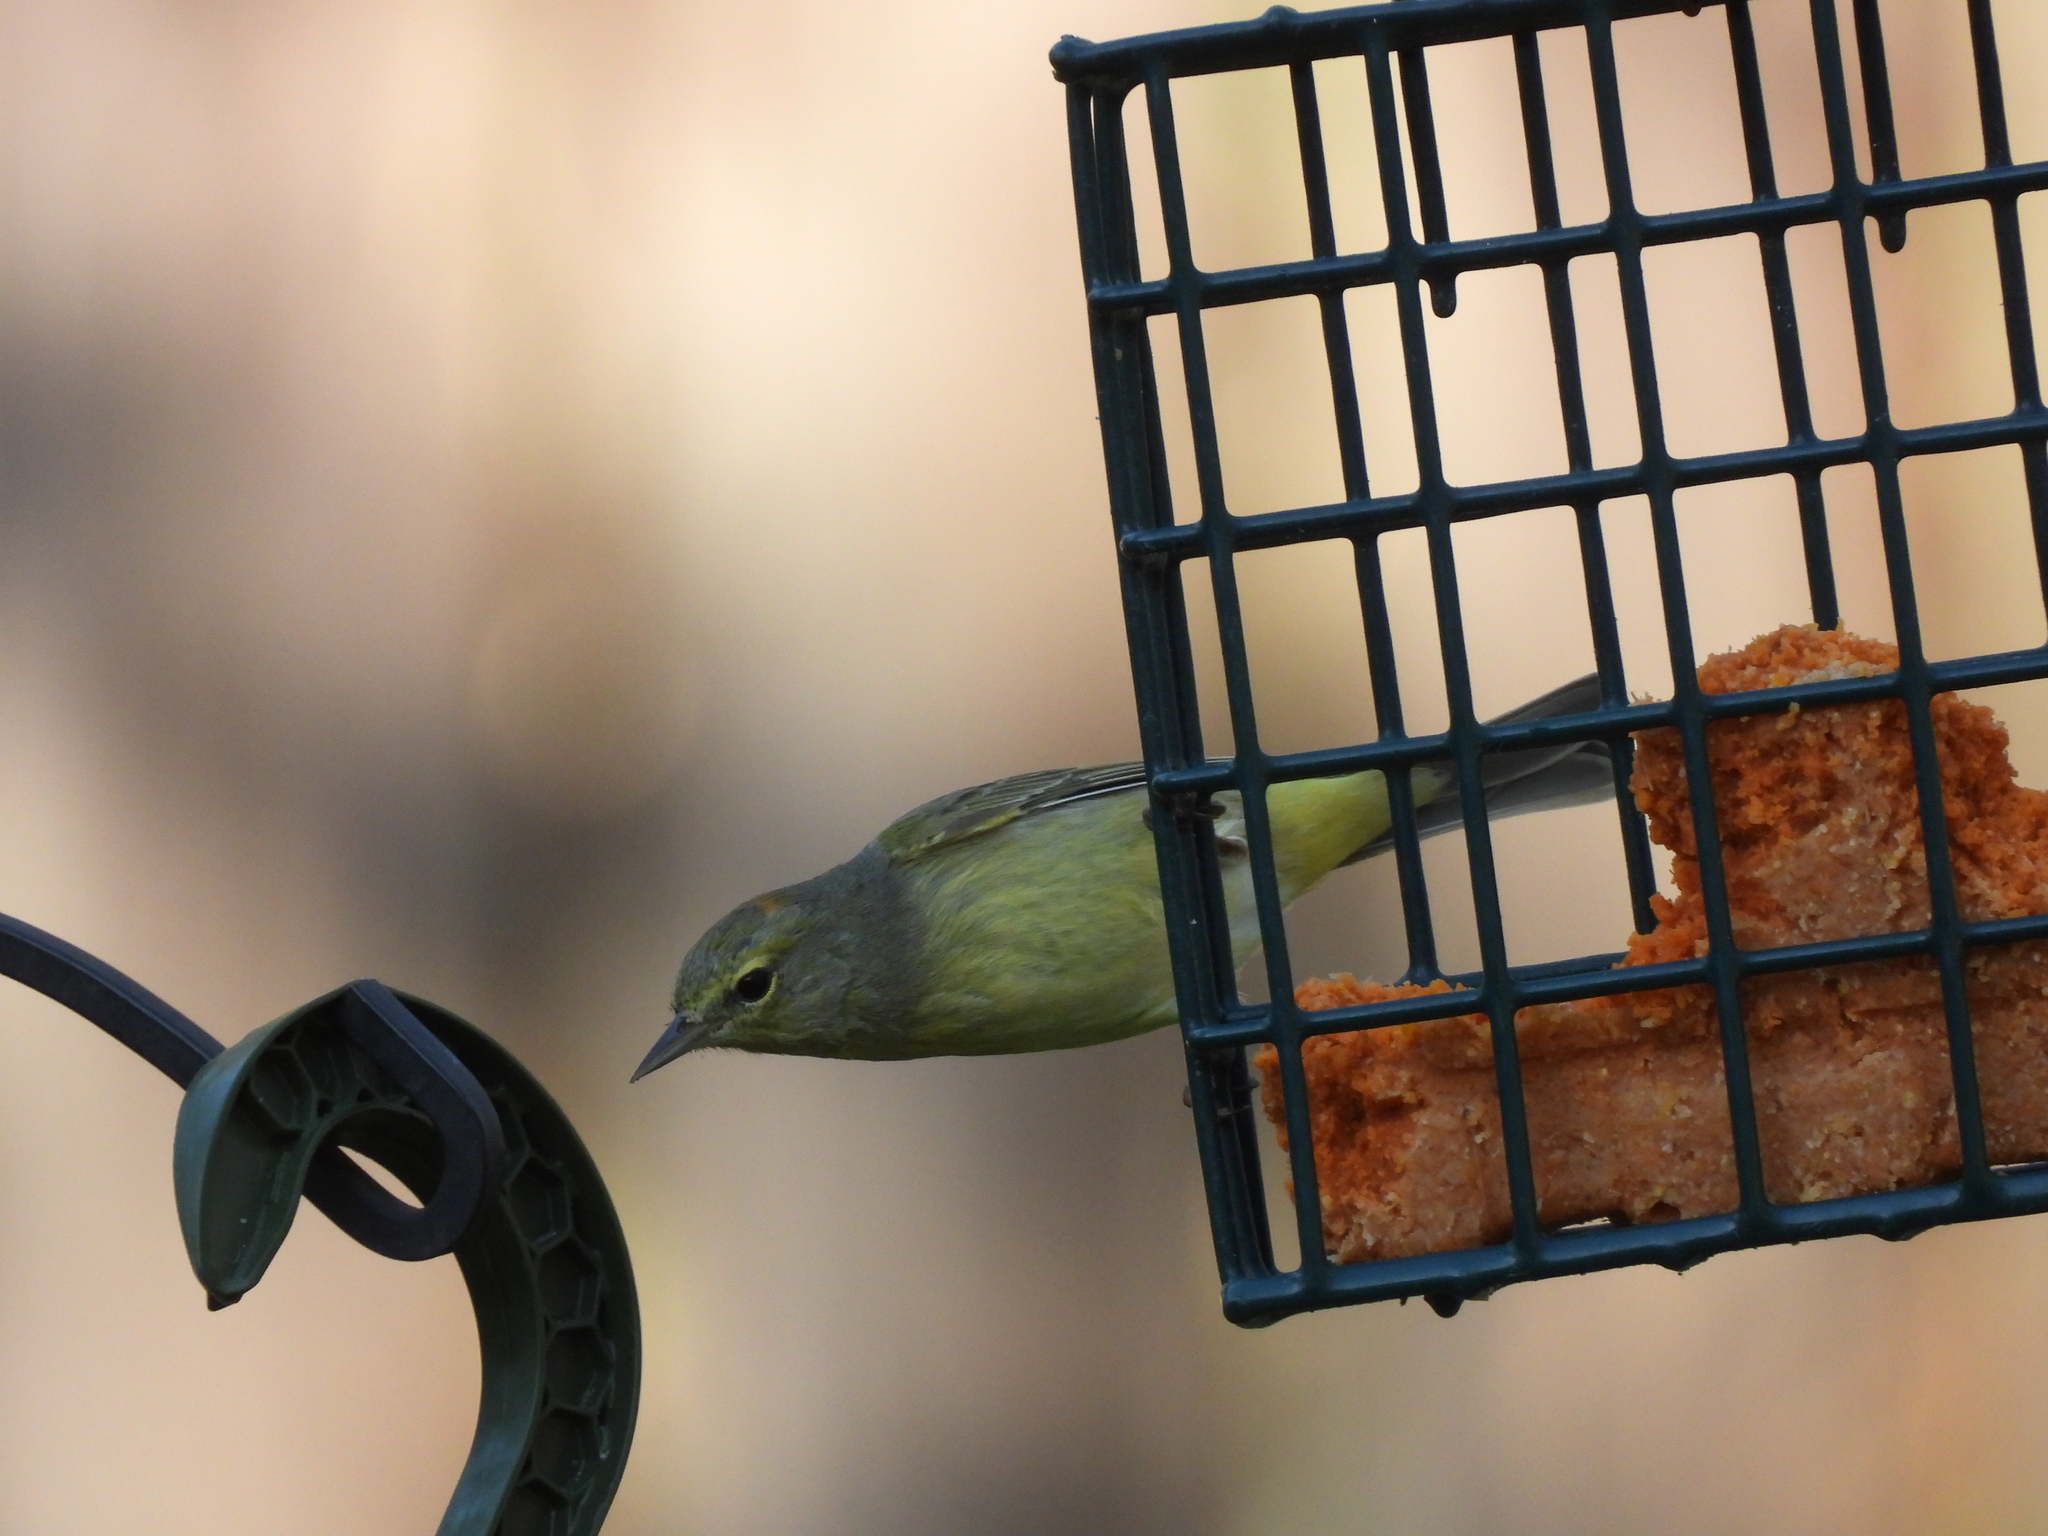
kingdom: Animalia
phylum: Chordata
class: Aves
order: Passeriformes
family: Parulidae
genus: Leiothlypis
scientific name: Leiothlypis celata
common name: Orange-crowned warbler
